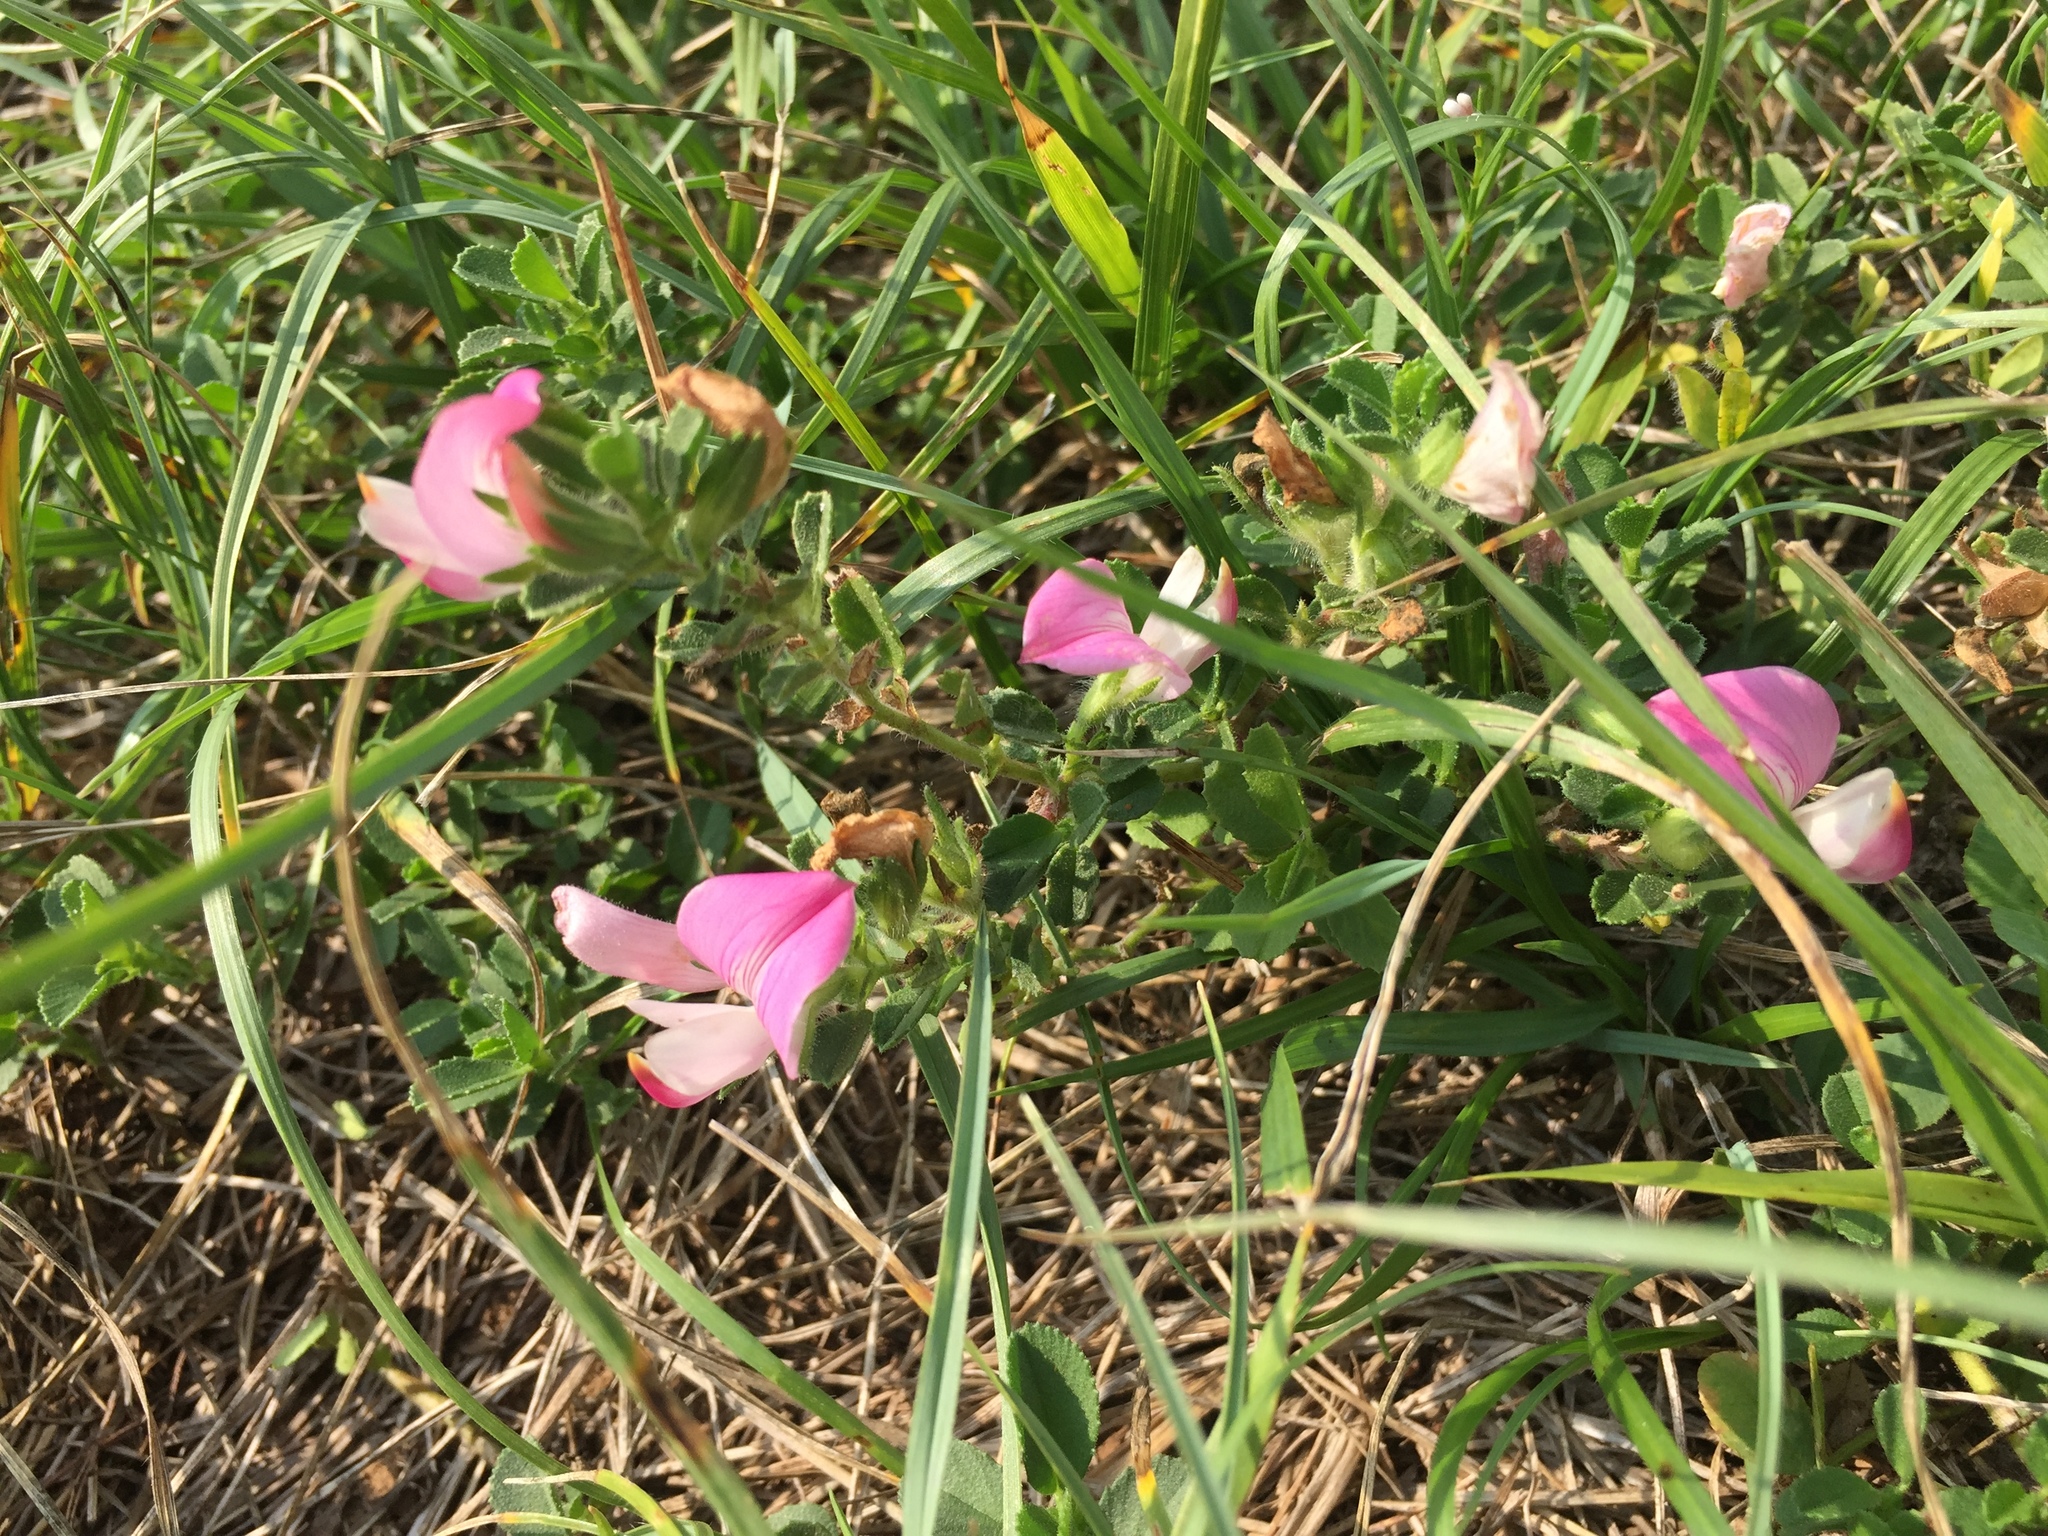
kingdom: Plantae
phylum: Tracheophyta
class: Magnoliopsida
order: Fabales
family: Fabaceae
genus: Ononis
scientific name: Ononis spinosa
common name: Spiny restharrow
